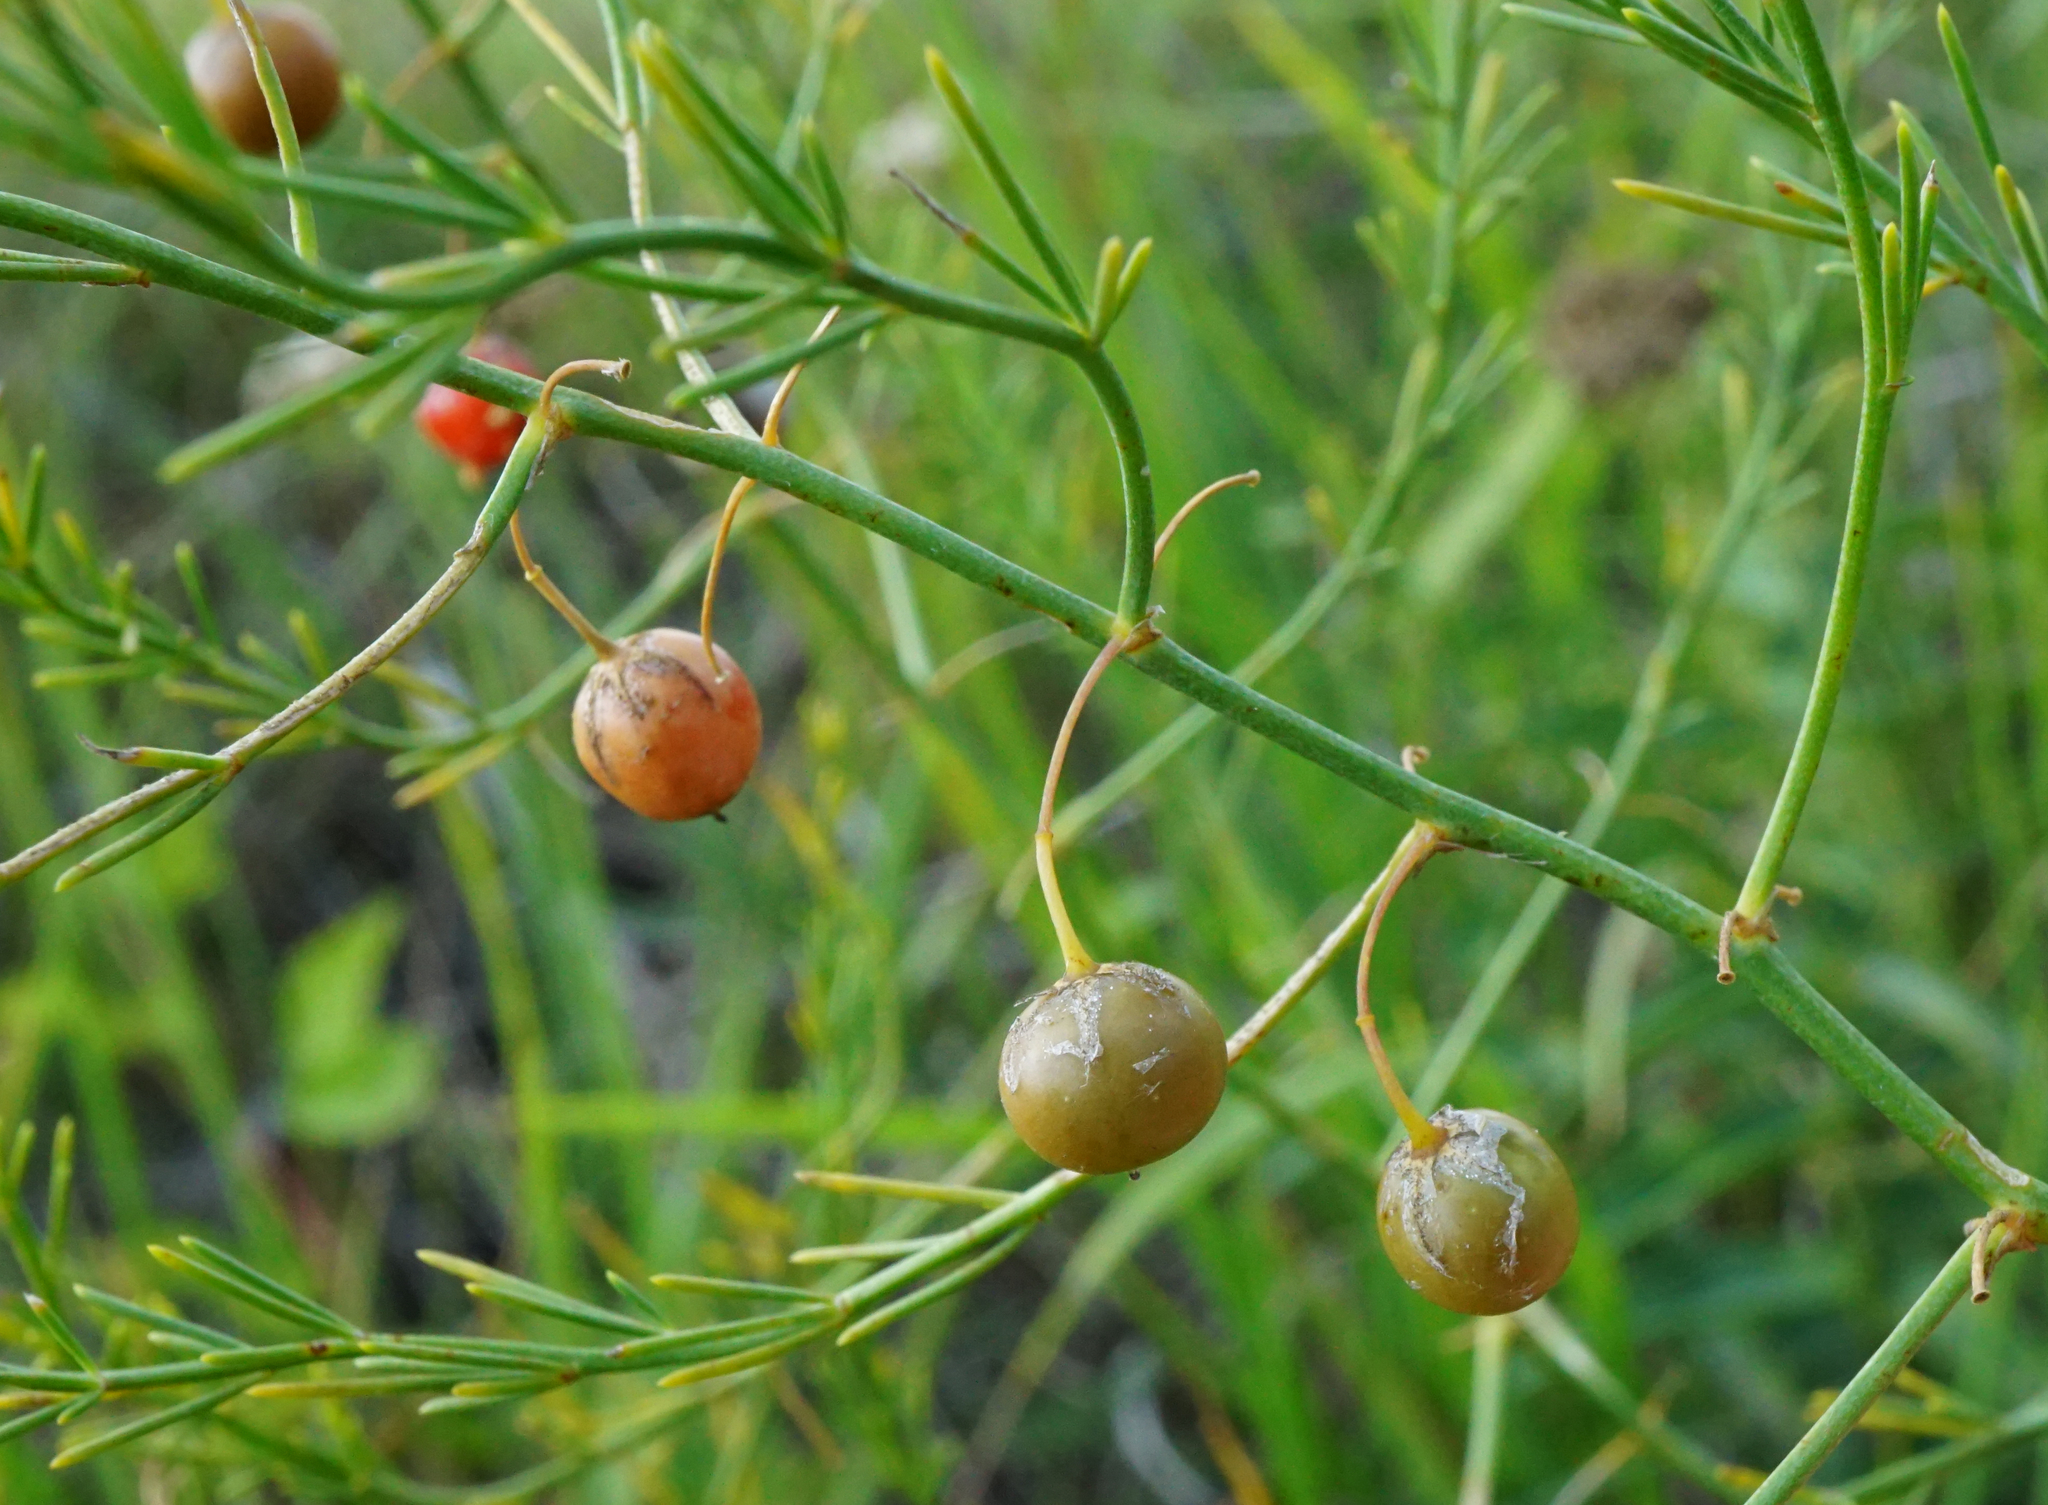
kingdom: Plantae
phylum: Tracheophyta
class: Liliopsida
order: Asparagales
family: Asparagaceae
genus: Asparagus
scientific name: Asparagus officinalis
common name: Garden asparagus
